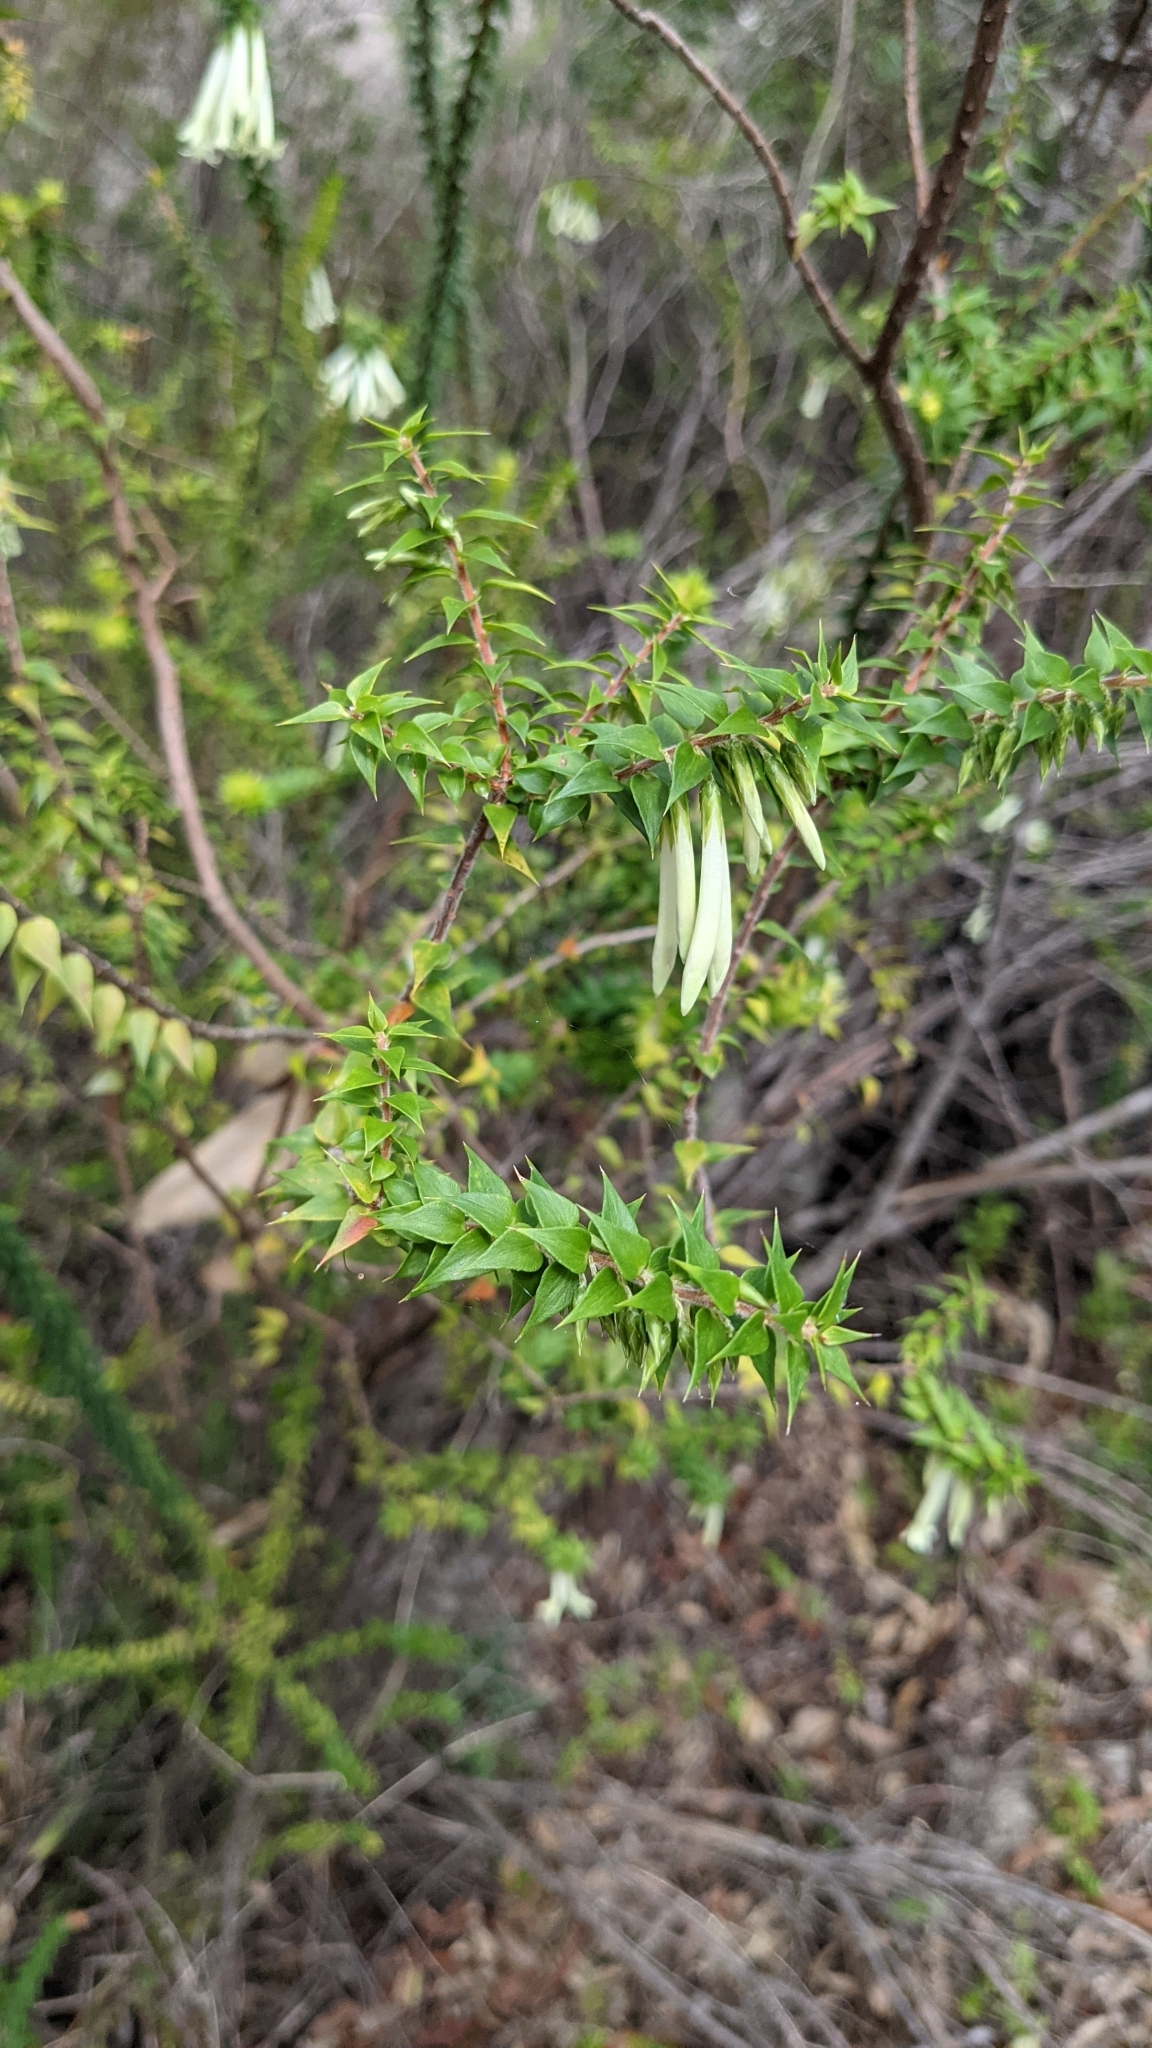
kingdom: Plantae
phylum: Tracheophyta
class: Magnoliopsida
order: Ericales
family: Ericaceae
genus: Epacris
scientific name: Epacris longiflora
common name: Fuchsia-heath
